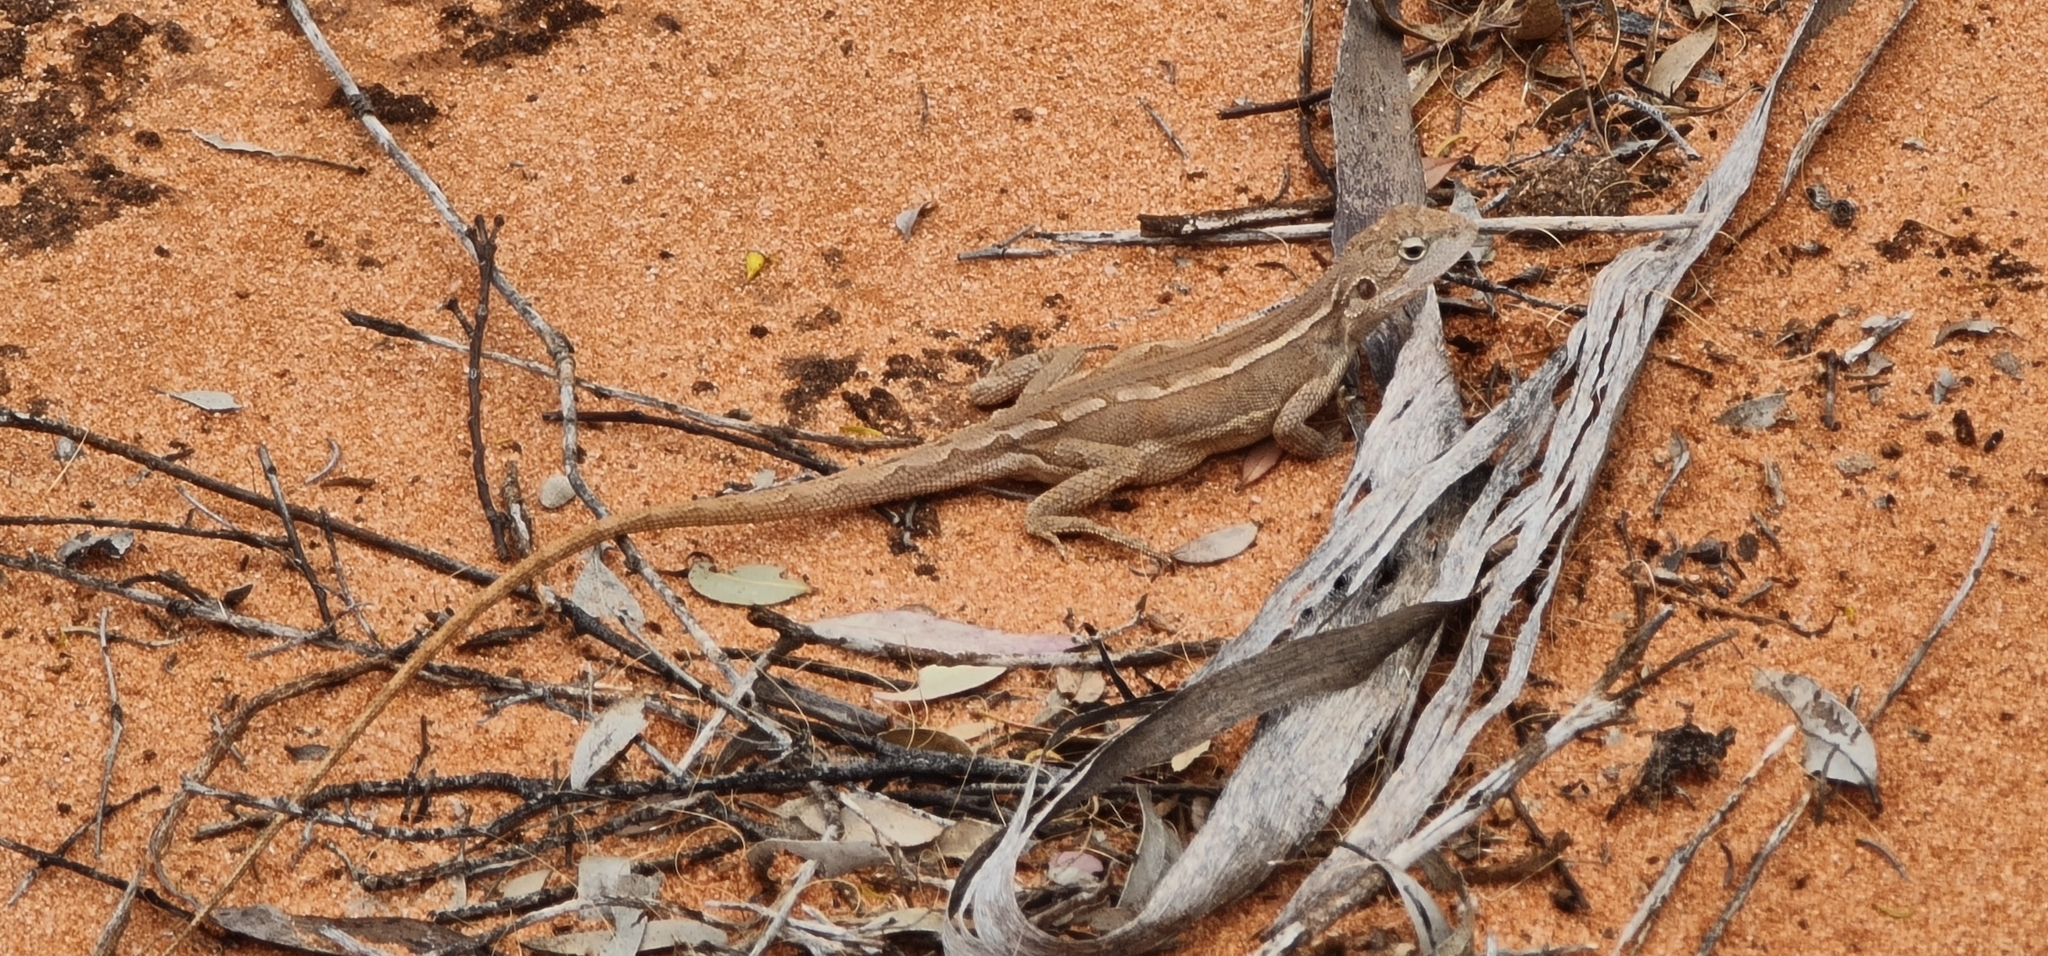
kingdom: Animalia
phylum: Chordata
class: Squamata
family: Agamidae
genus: Diporiphora
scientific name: Diporiphora nobbi
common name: Nobbi
